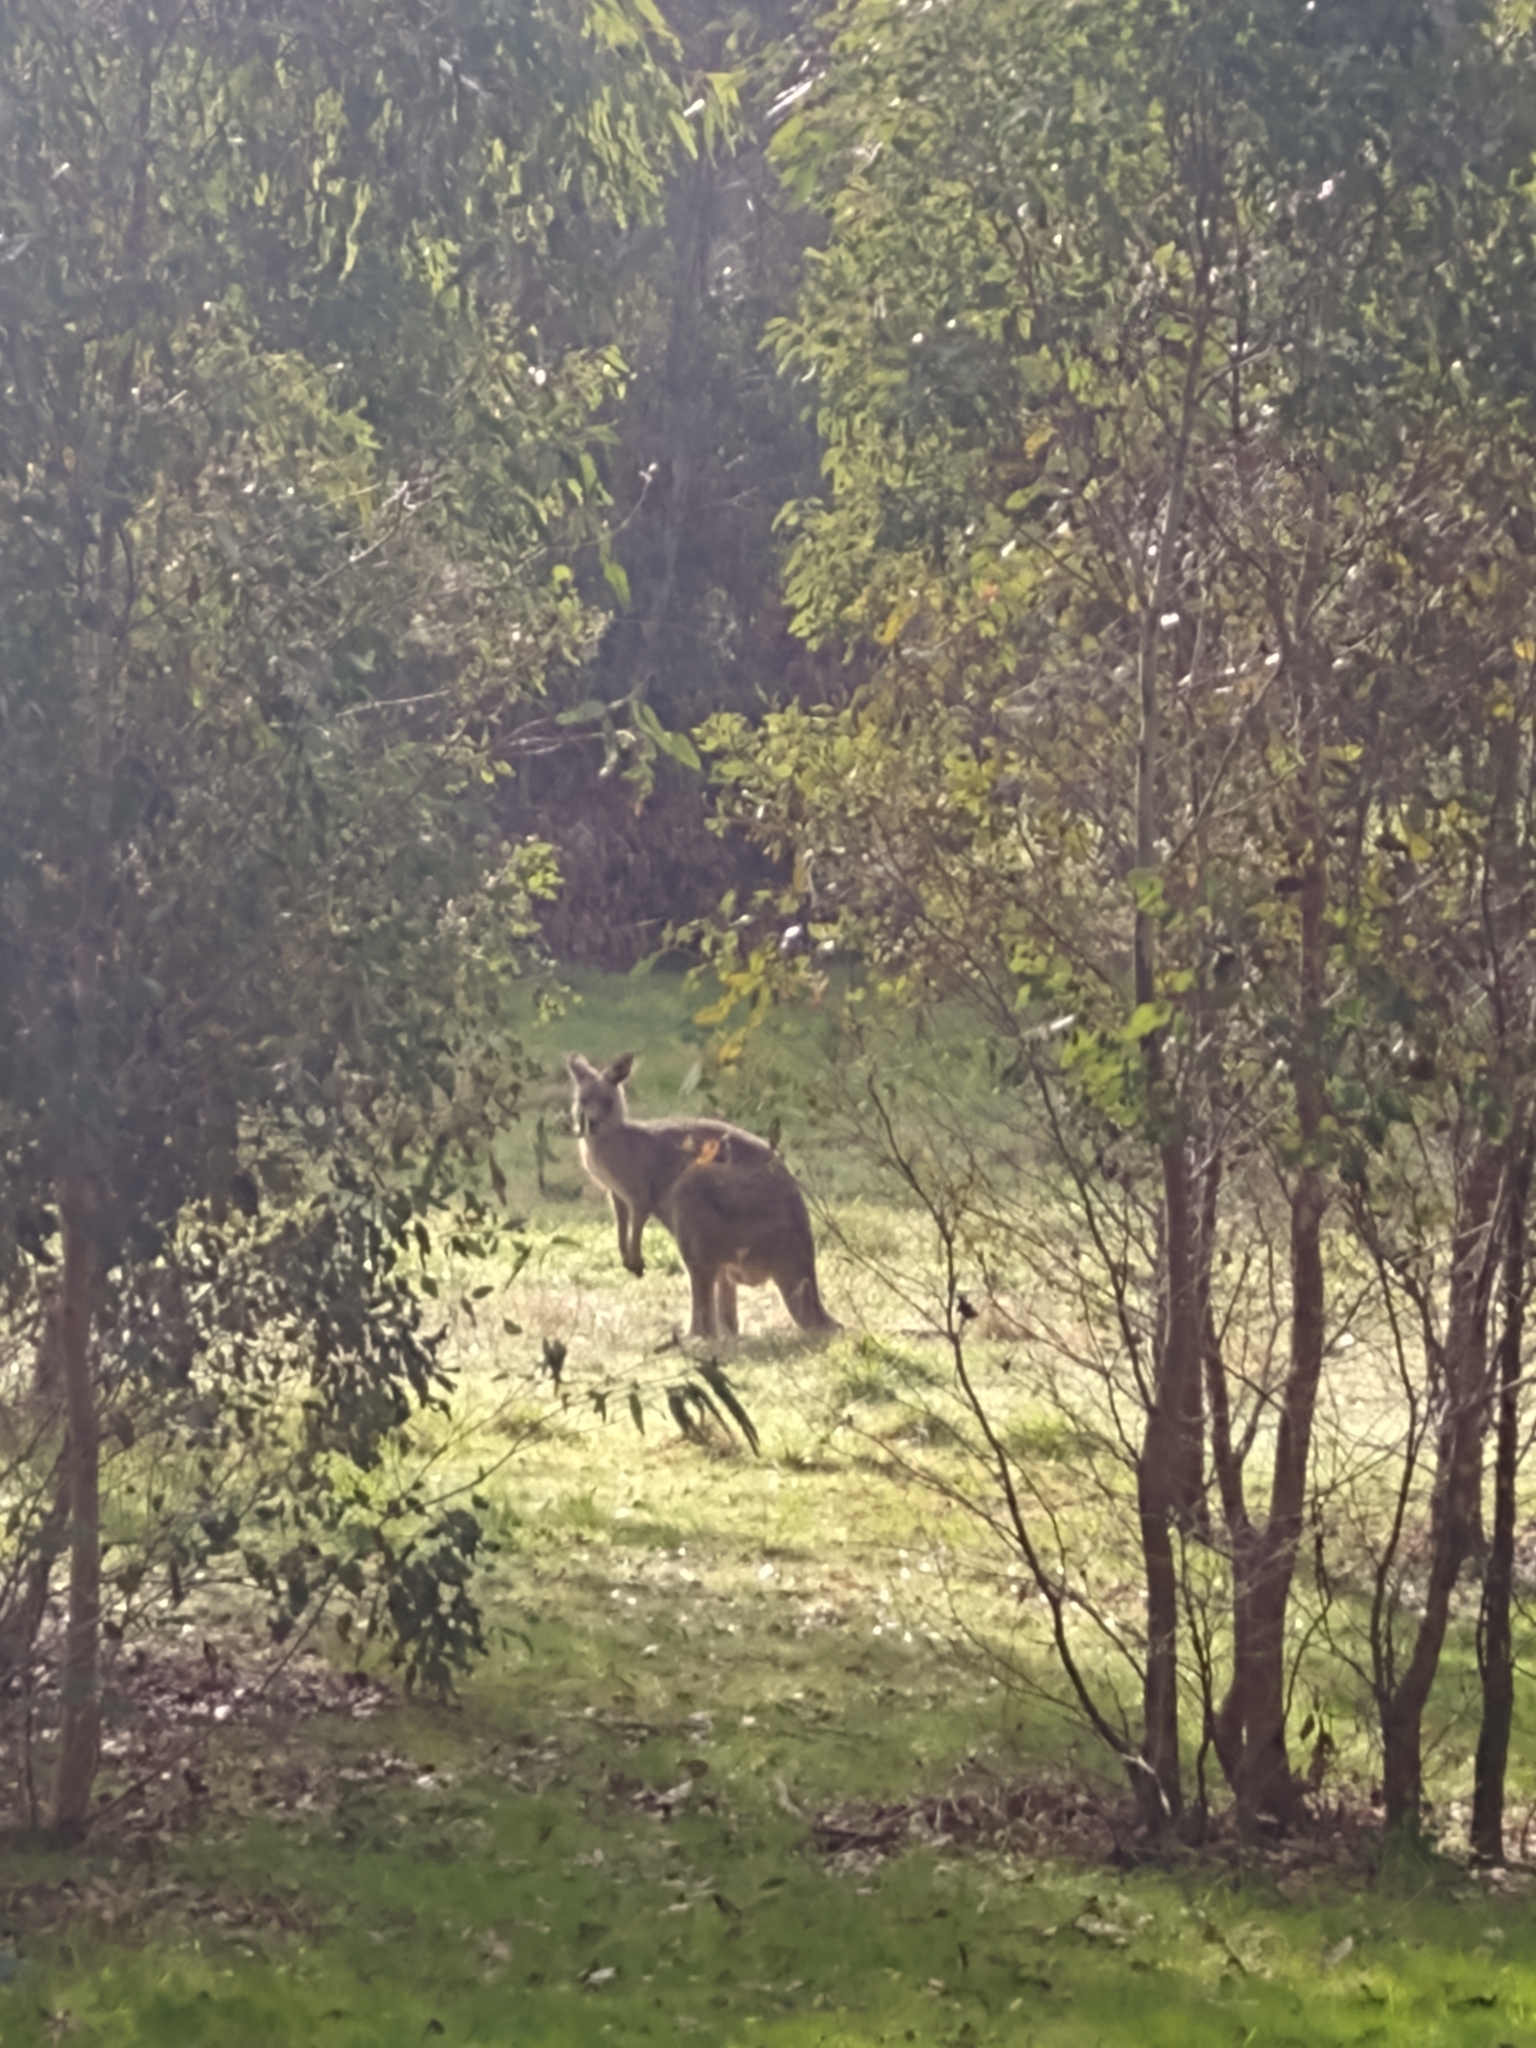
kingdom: Animalia
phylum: Chordata
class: Mammalia
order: Diprotodontia
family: Macropodidae
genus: Macropus
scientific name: Macropus giganteus
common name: Eastern grey kangaroo
